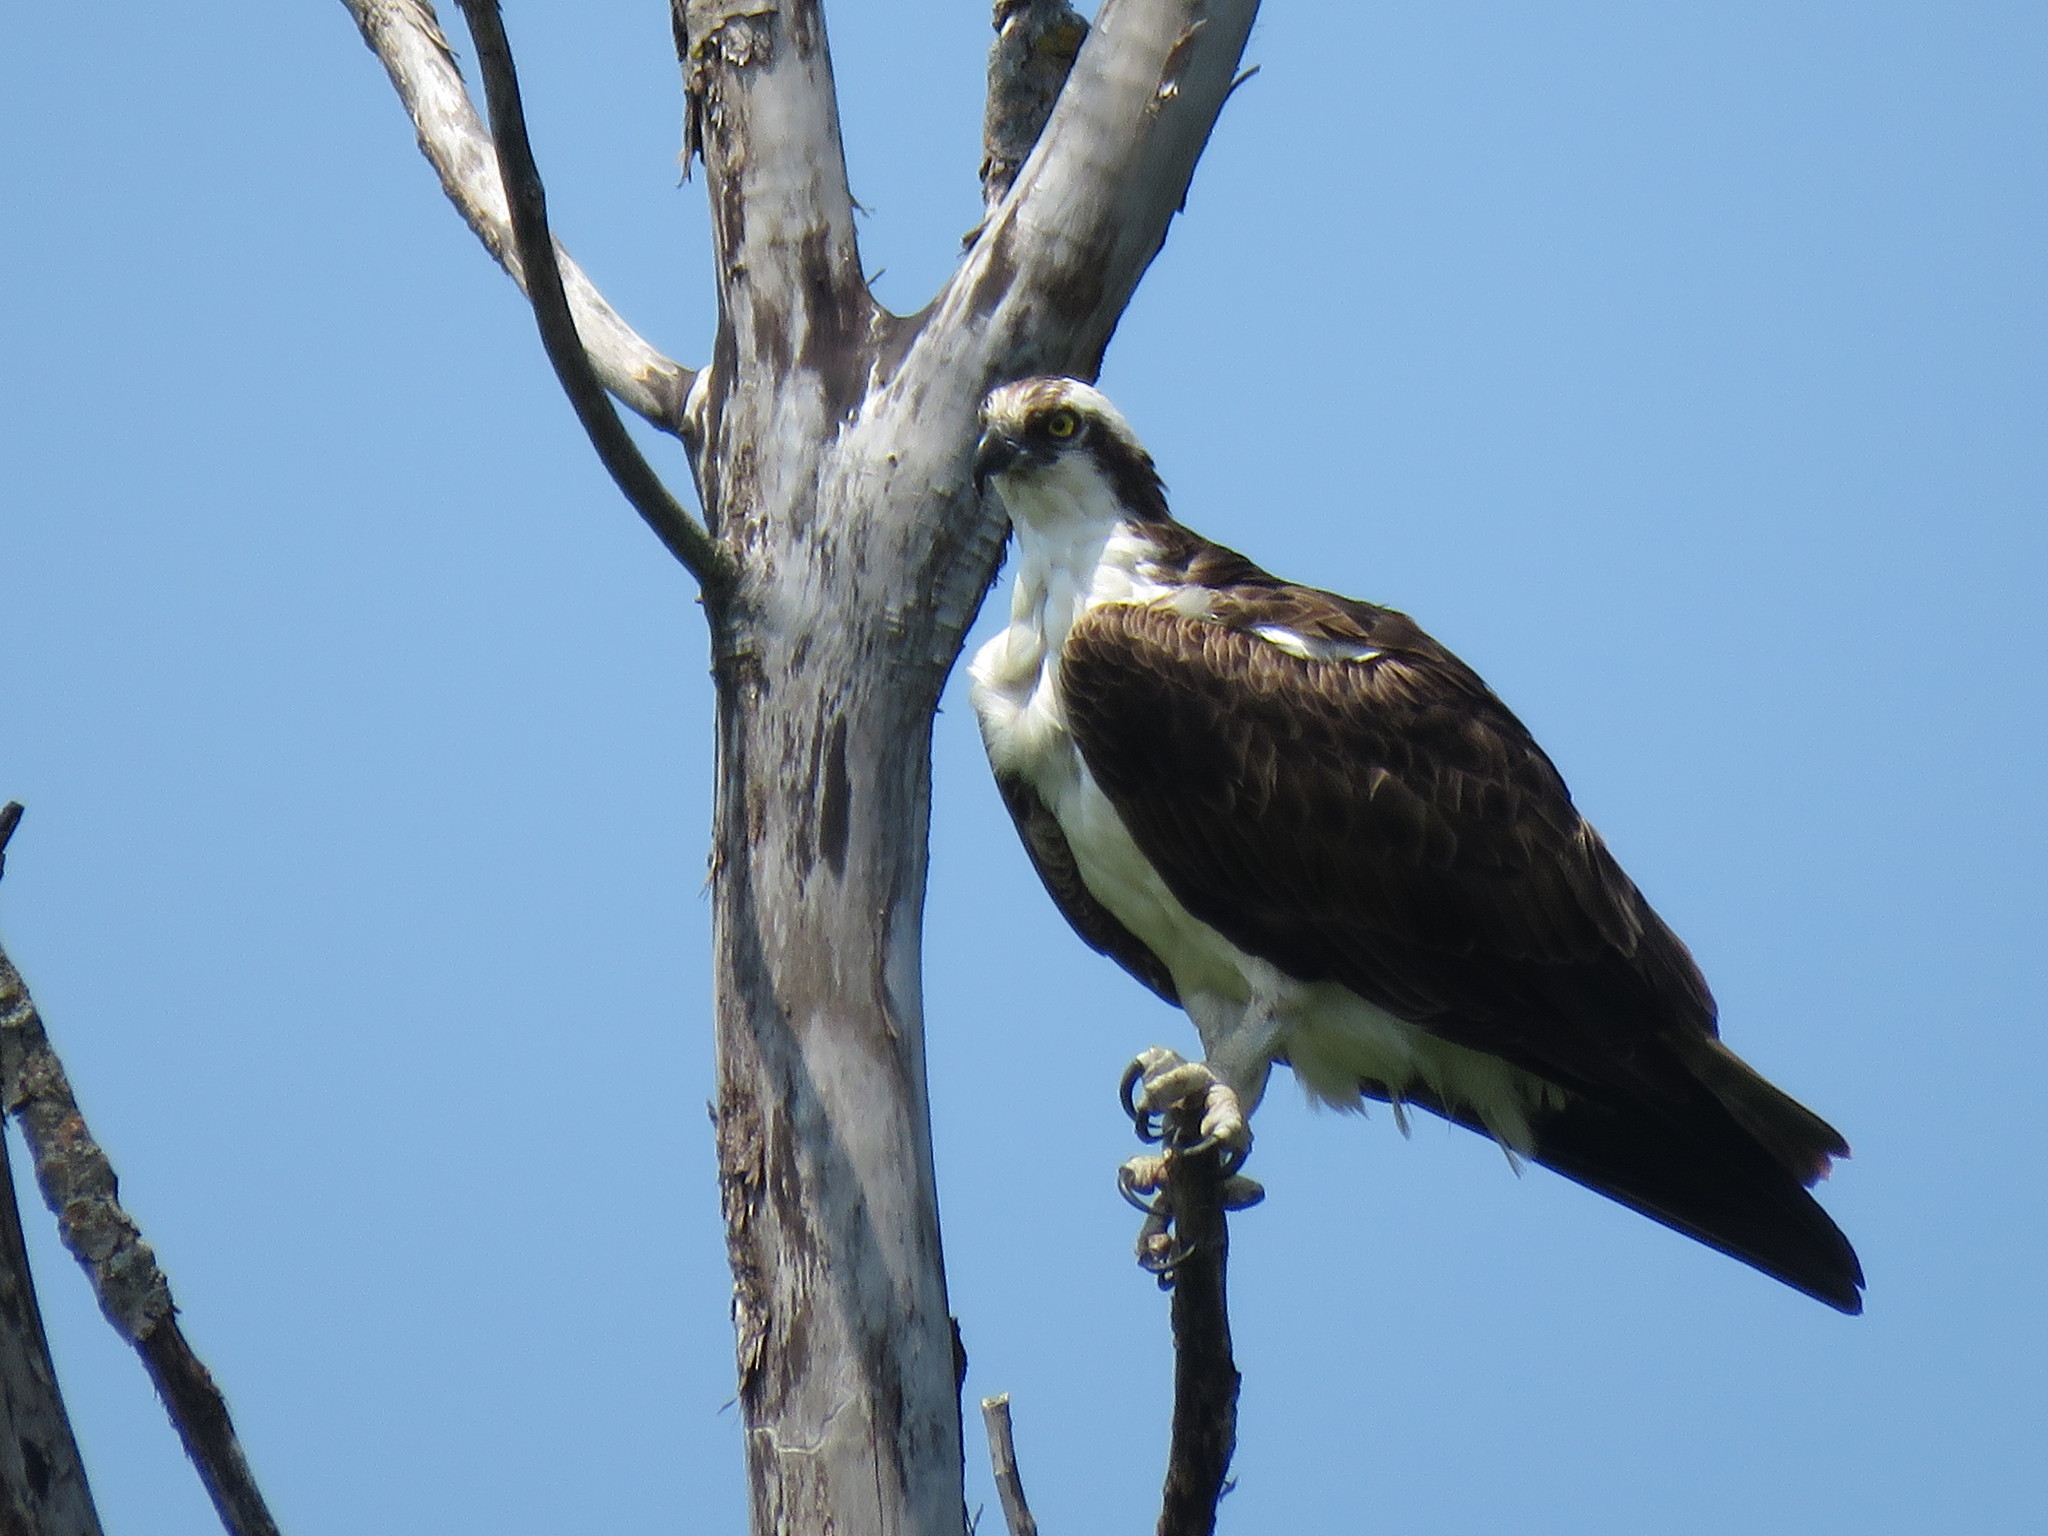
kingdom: Animalia
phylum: Chordata
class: Aves
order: Accipitriformes
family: Pandionidae
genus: Pandion
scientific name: Pandion haliaetus
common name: Osprey
